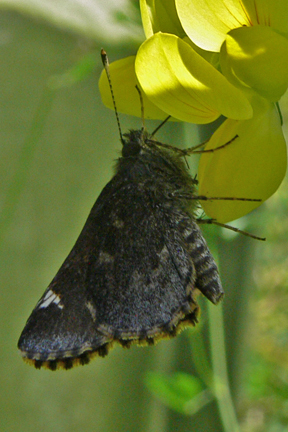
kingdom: Animalia
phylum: Arthropoda
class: Insecta
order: Lepidoptera
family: Hesperiidae
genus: Mastor
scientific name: Mastor vialis
